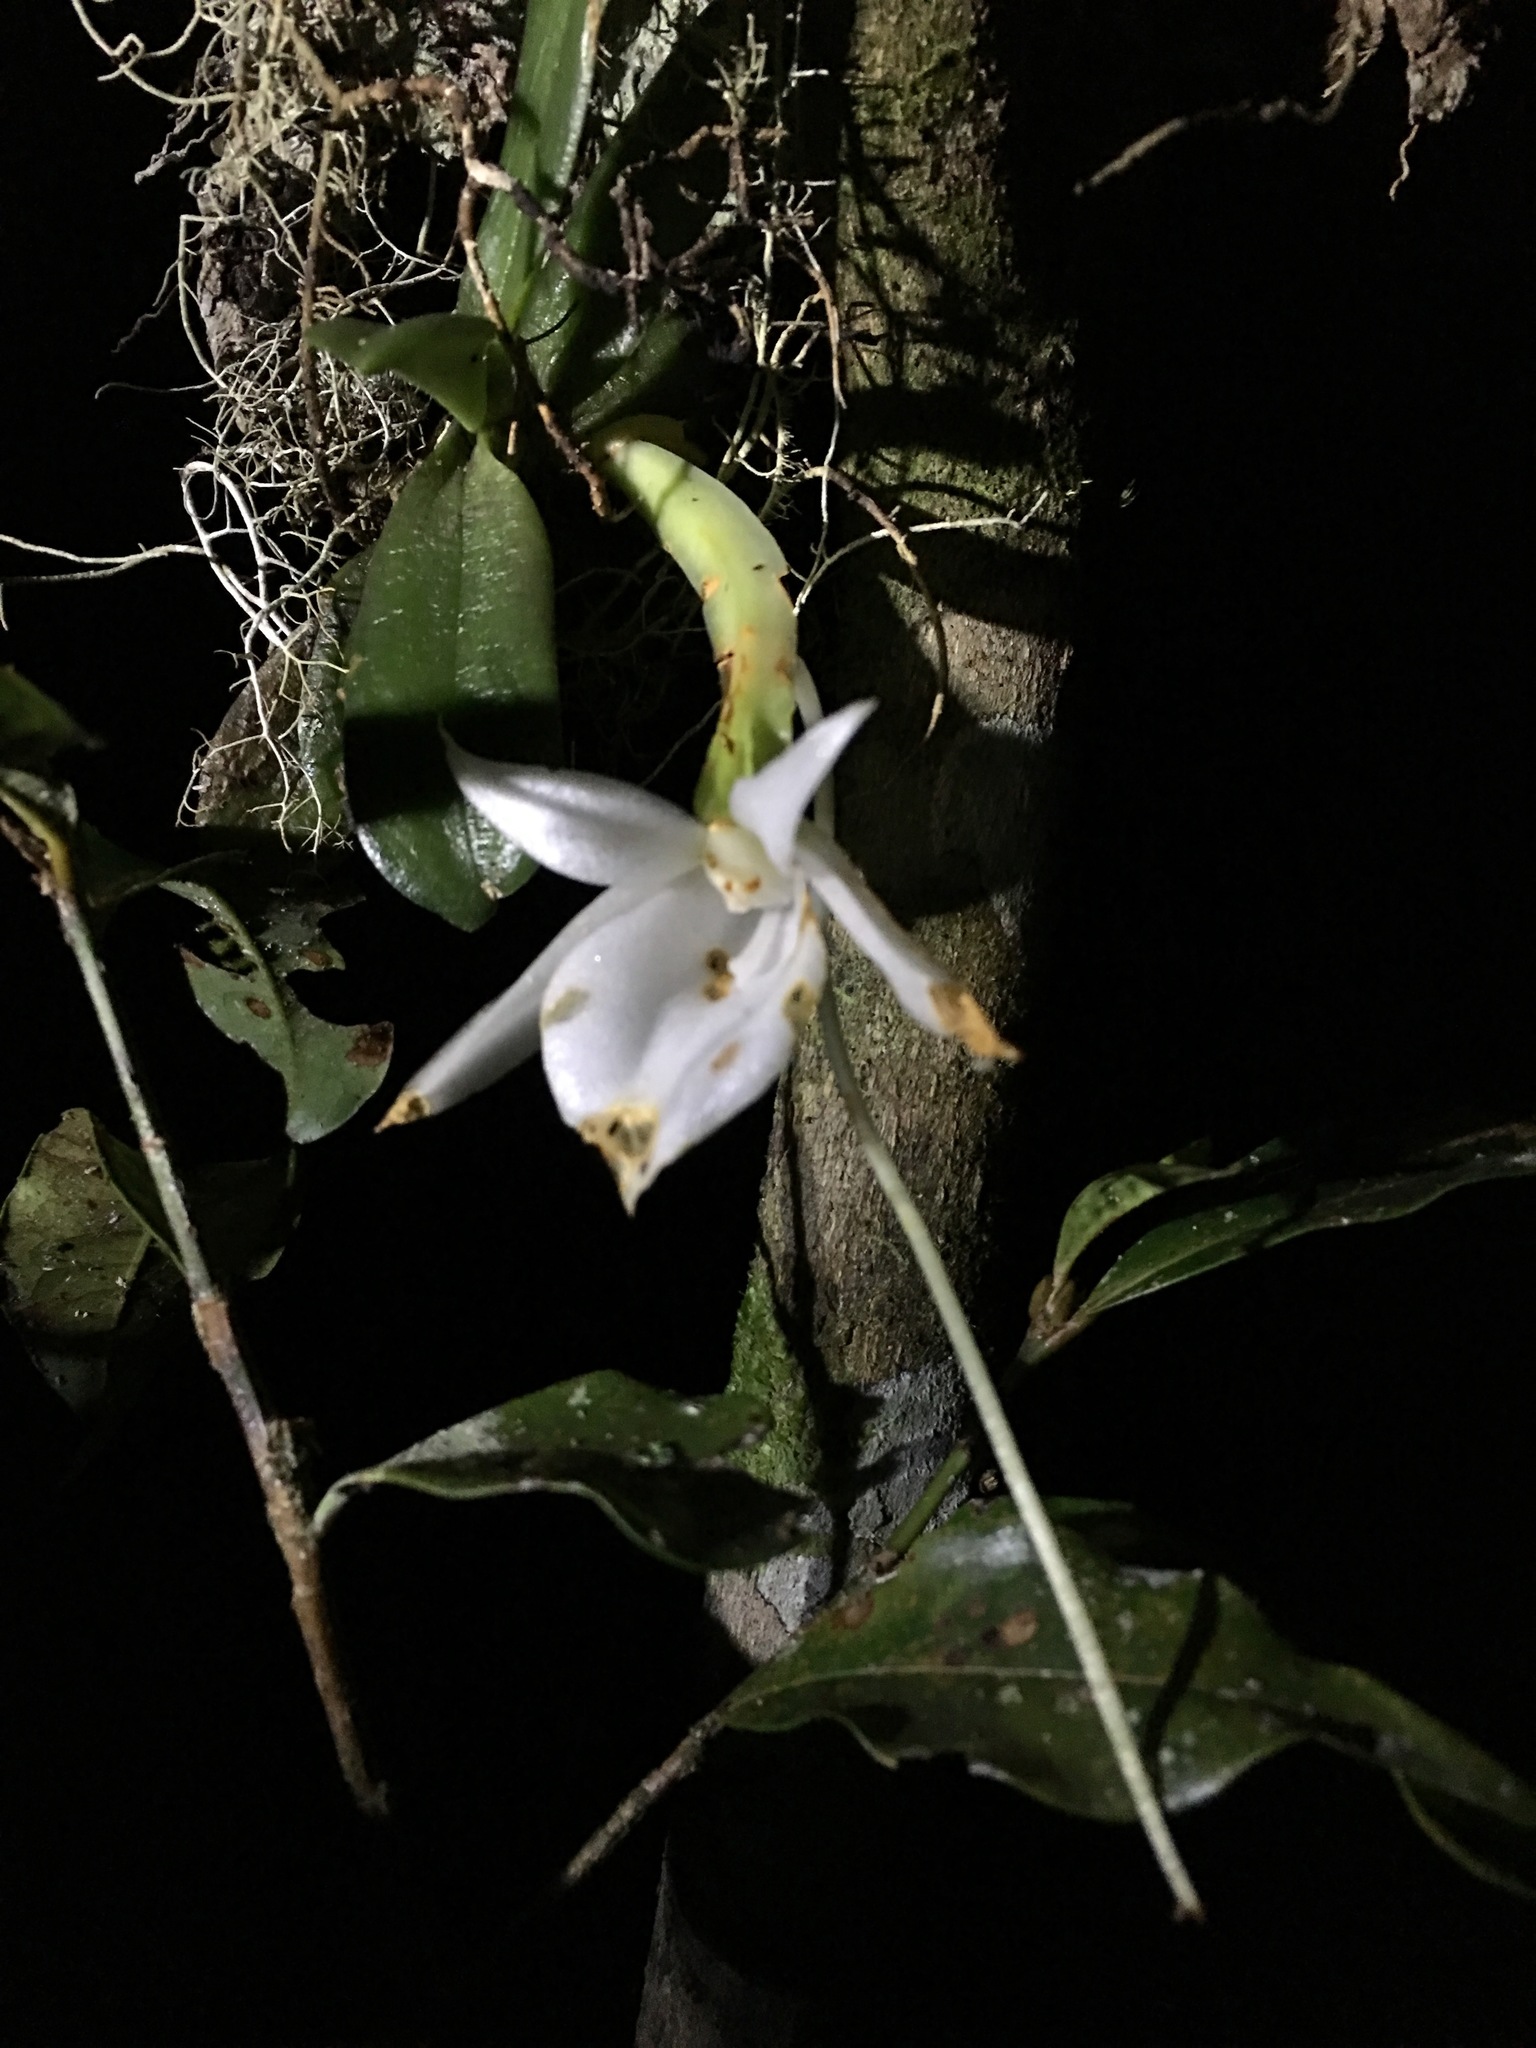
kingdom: Plantae
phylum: Tracheophyta
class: Liliopsida
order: Asparagales
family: Orchidaceae
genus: Angraecum
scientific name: Angraecum compactum
